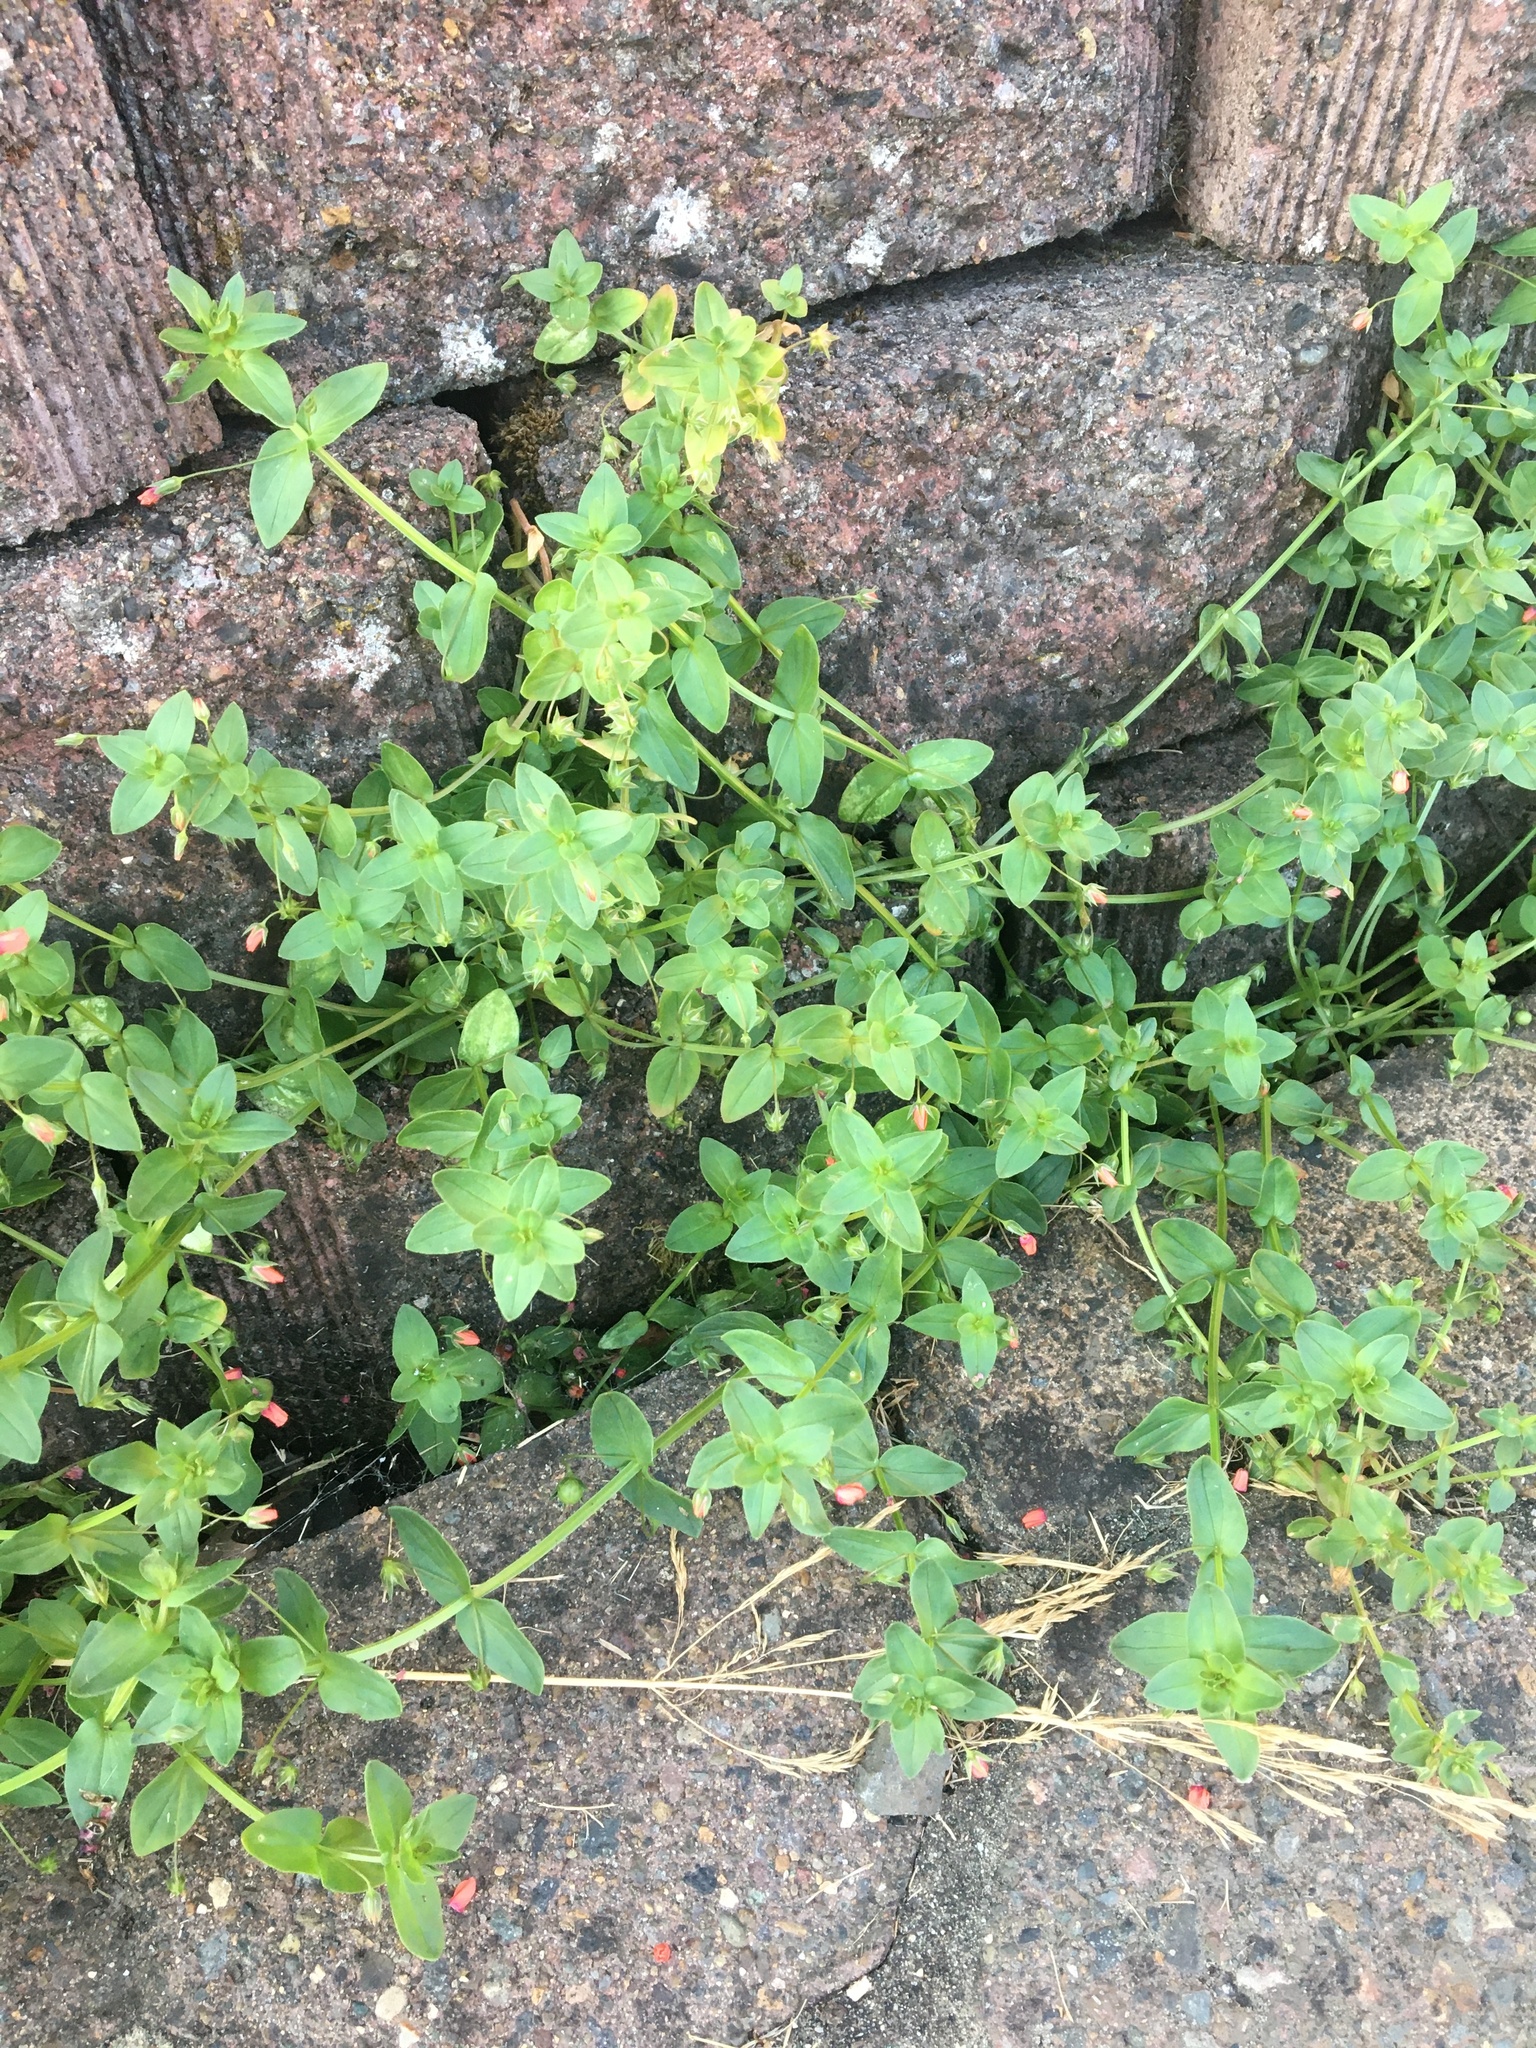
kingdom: Plantae
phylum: Tracheophyta
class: Magnoliopsida
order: Ericales
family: Primulaceae
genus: Lysimachia
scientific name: Lysimachia arvensis
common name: Scarlet pimpernel
